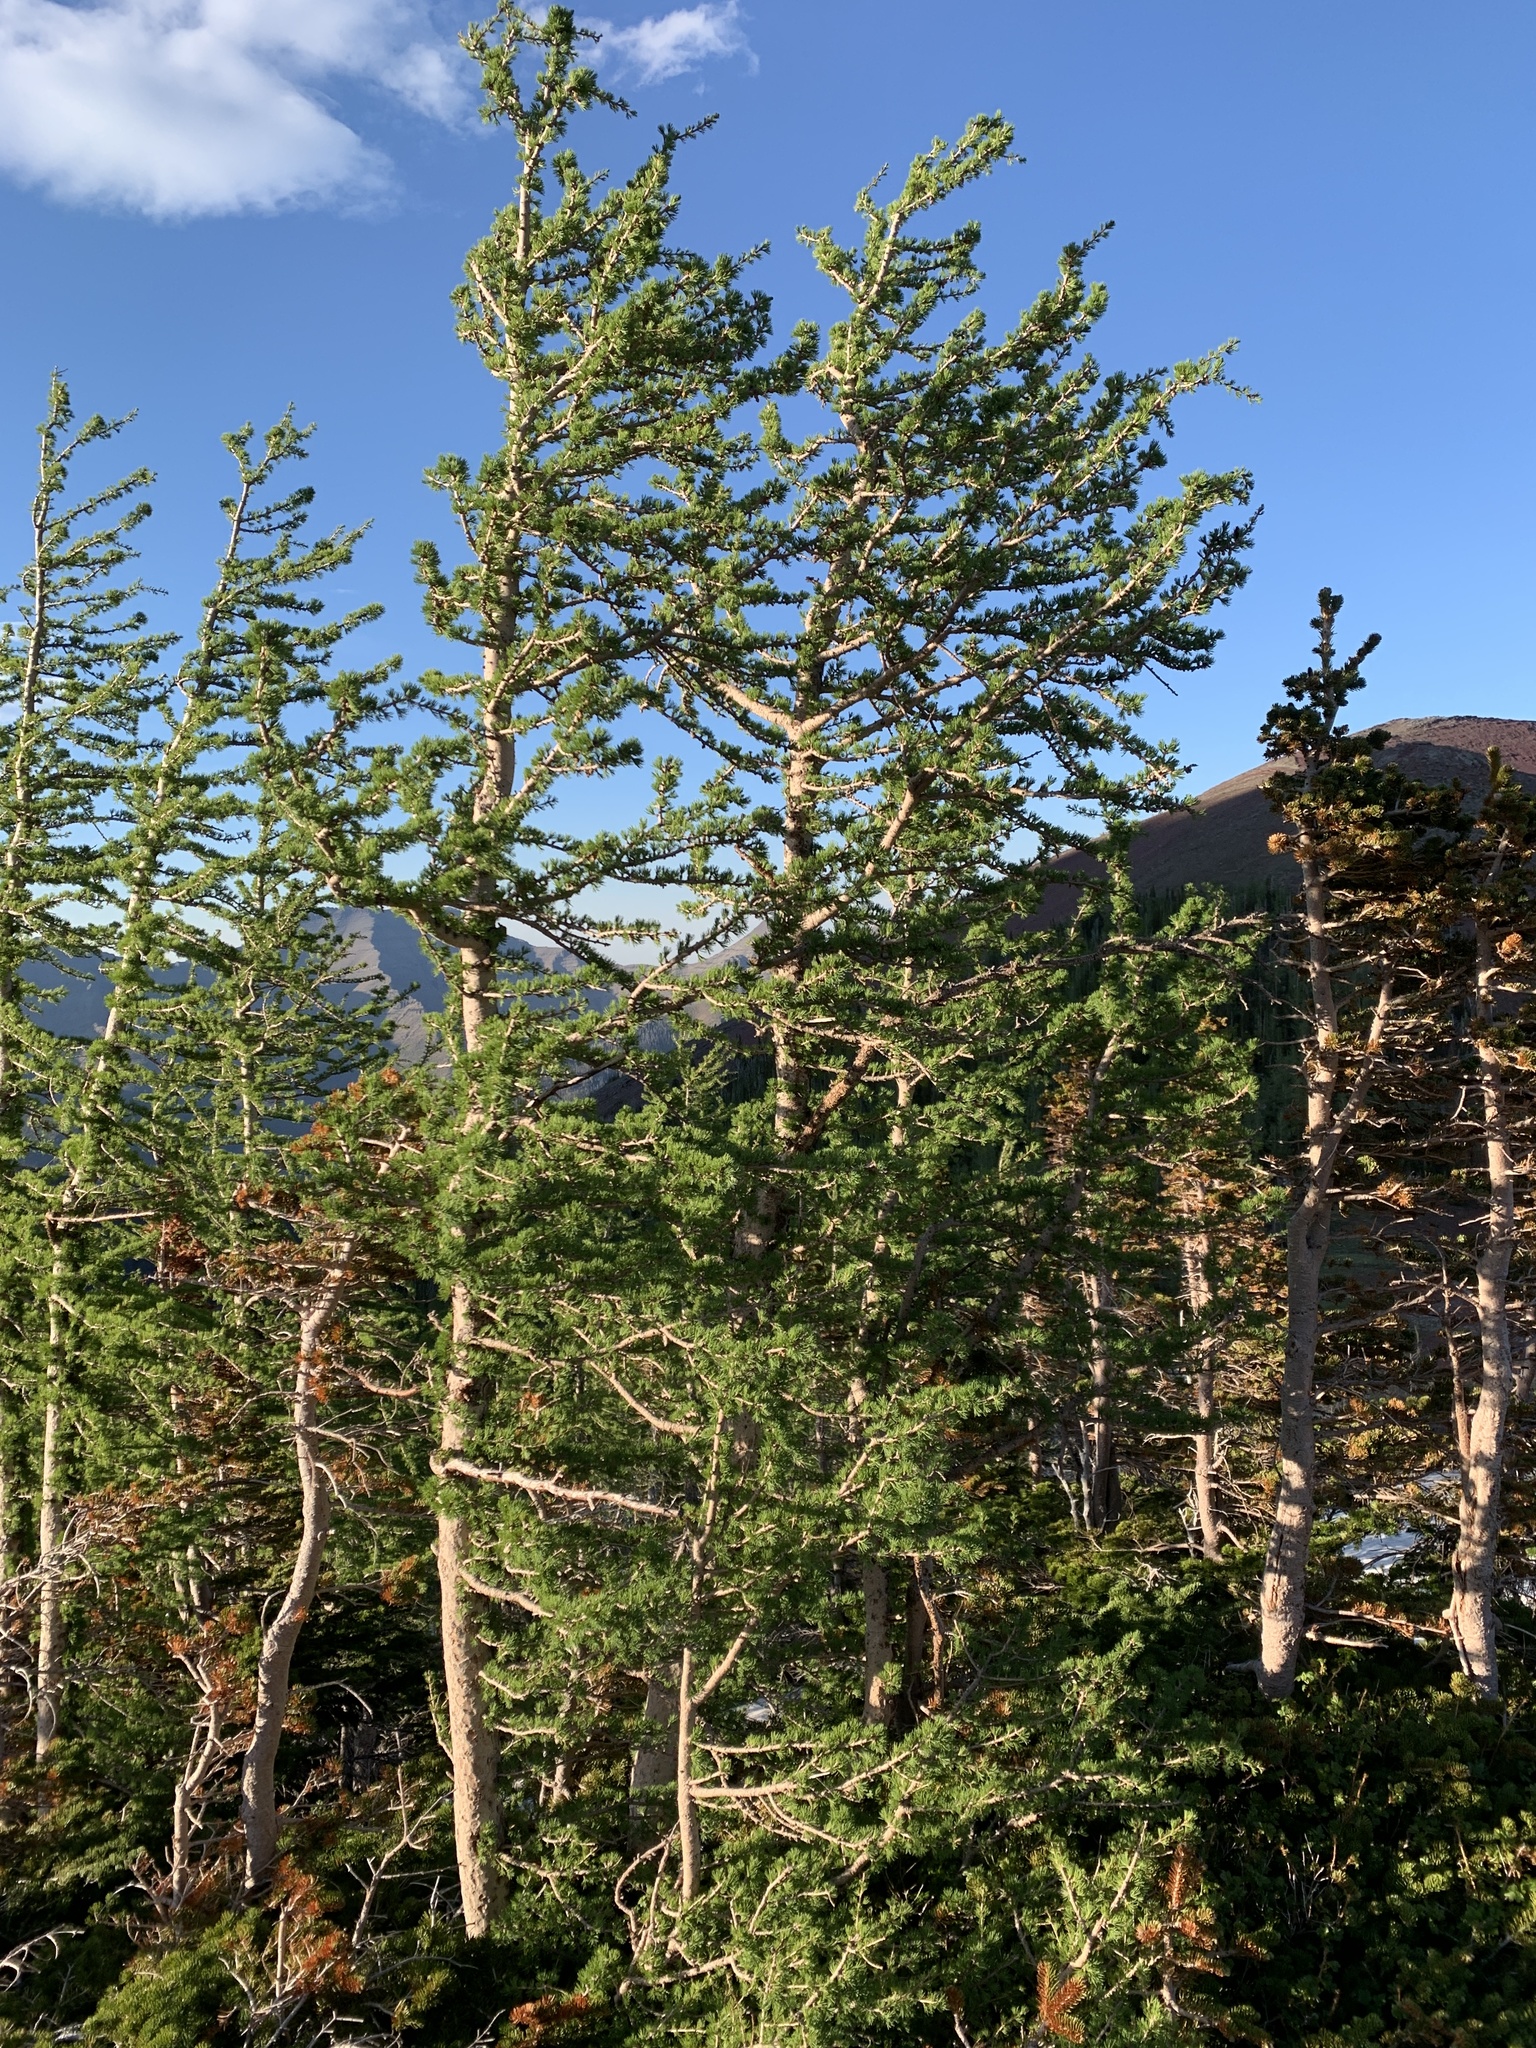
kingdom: Plantae
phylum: Tracheophyta
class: Pinopsida
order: Pinales
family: Pinaceae
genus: Larix
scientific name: Larix lyallii
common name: Alpine larch
